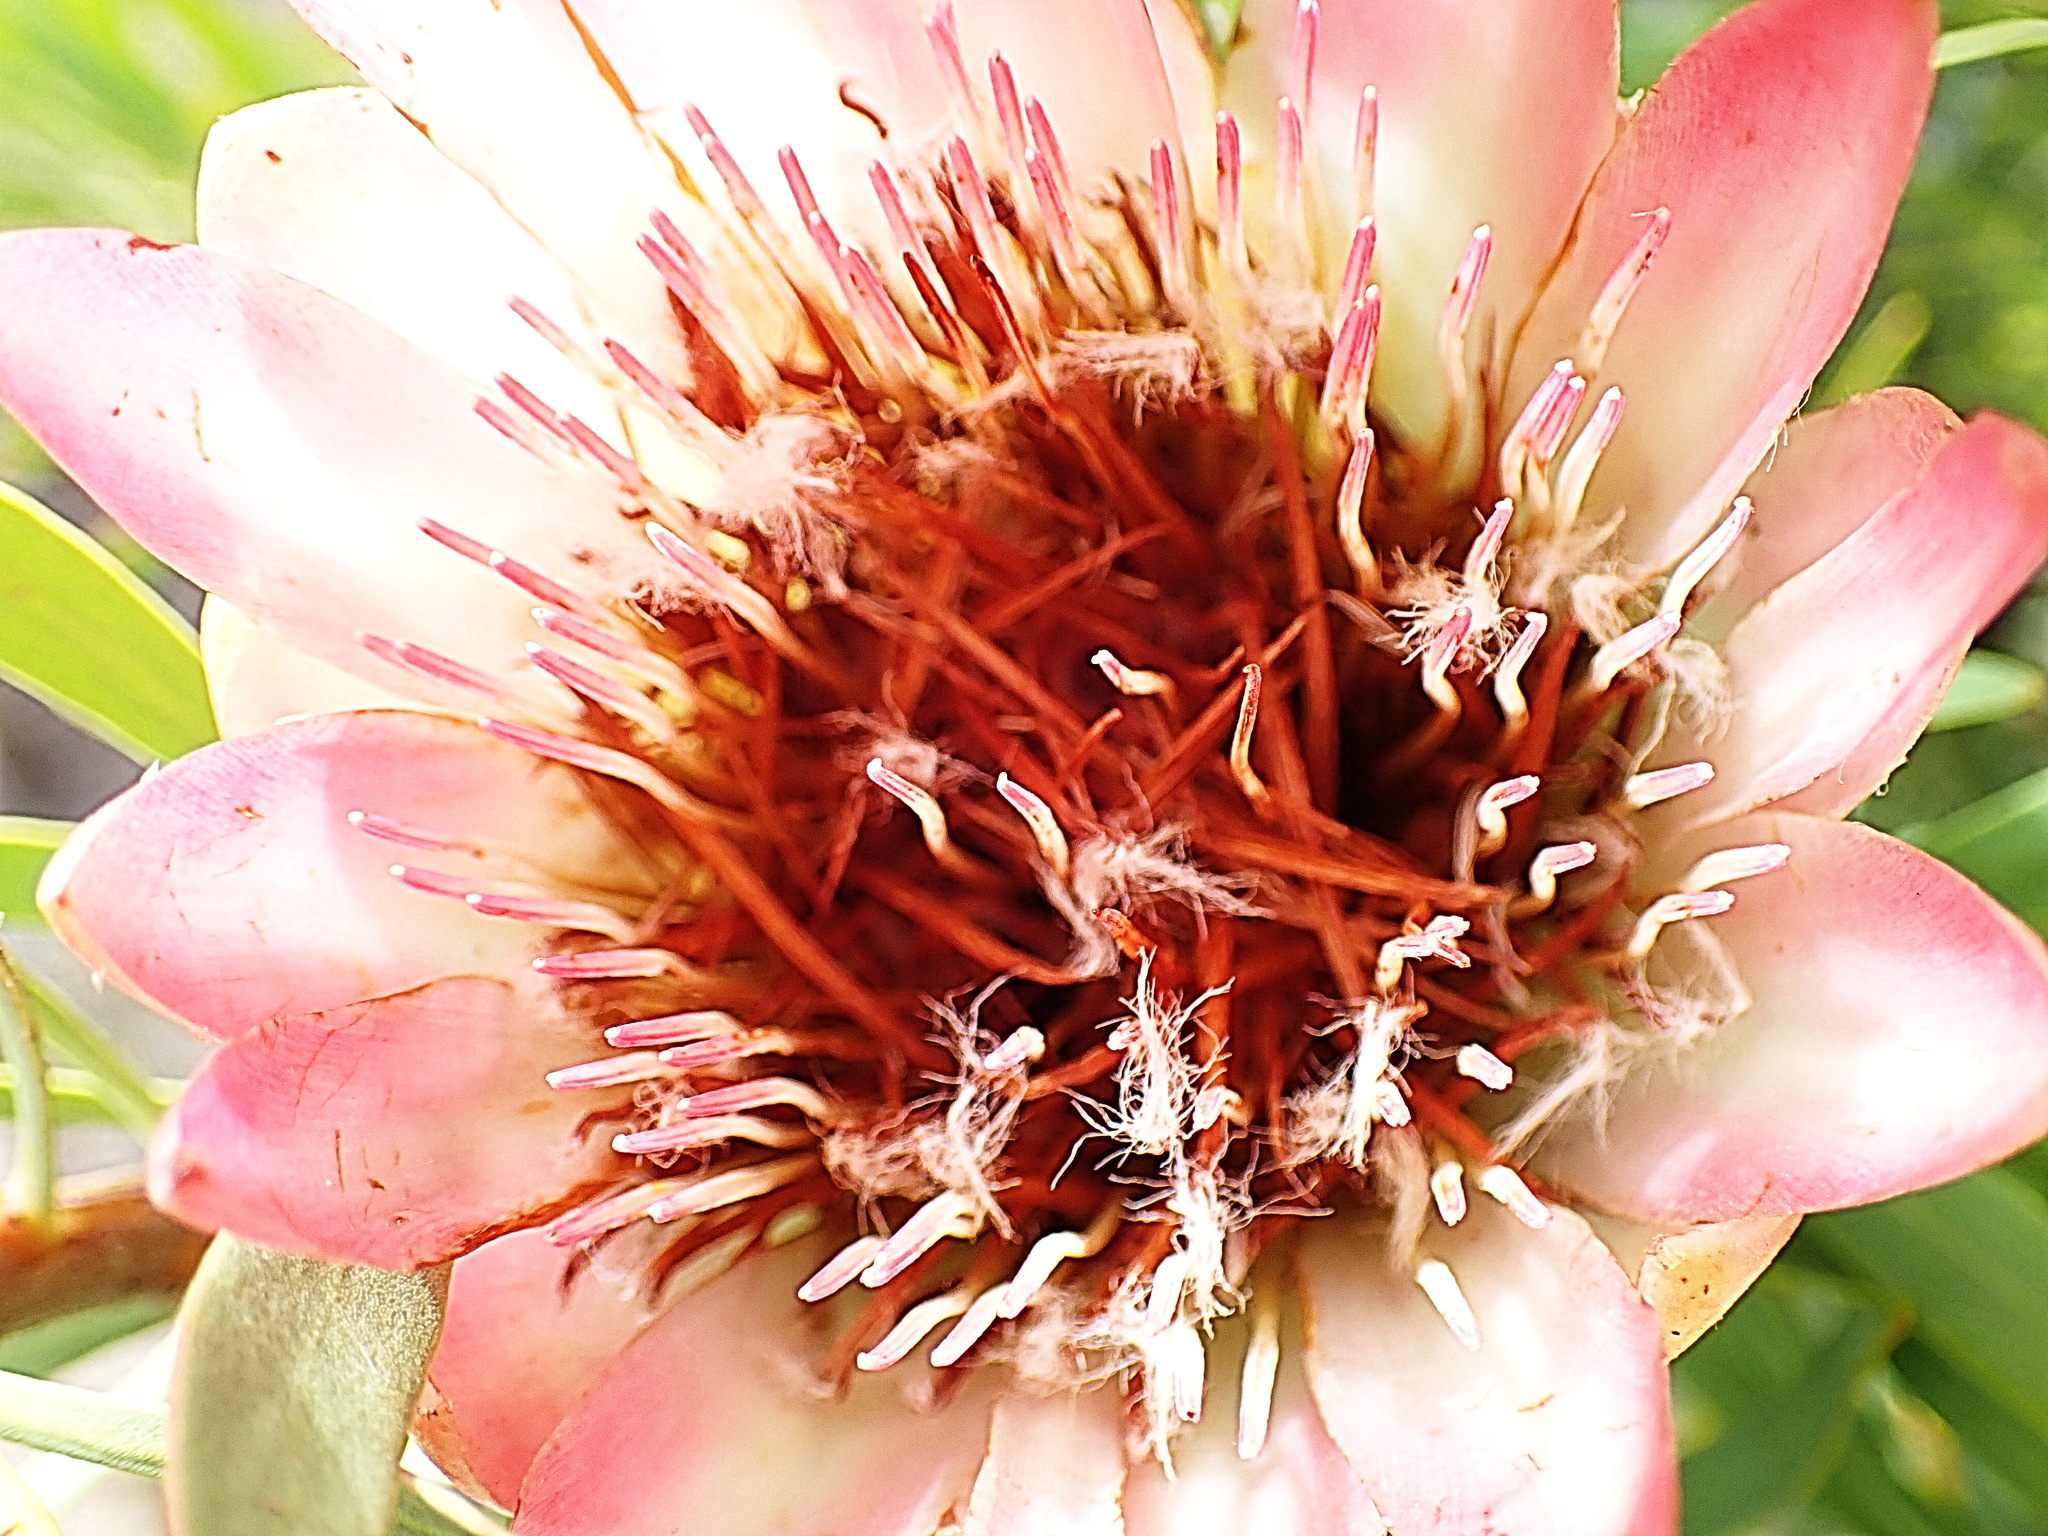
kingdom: Plantae
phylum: Tracheophyta
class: Magnoliopsida
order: Proteales
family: Proteaceae
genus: Protea
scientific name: Protea repens
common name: Sugarbush
